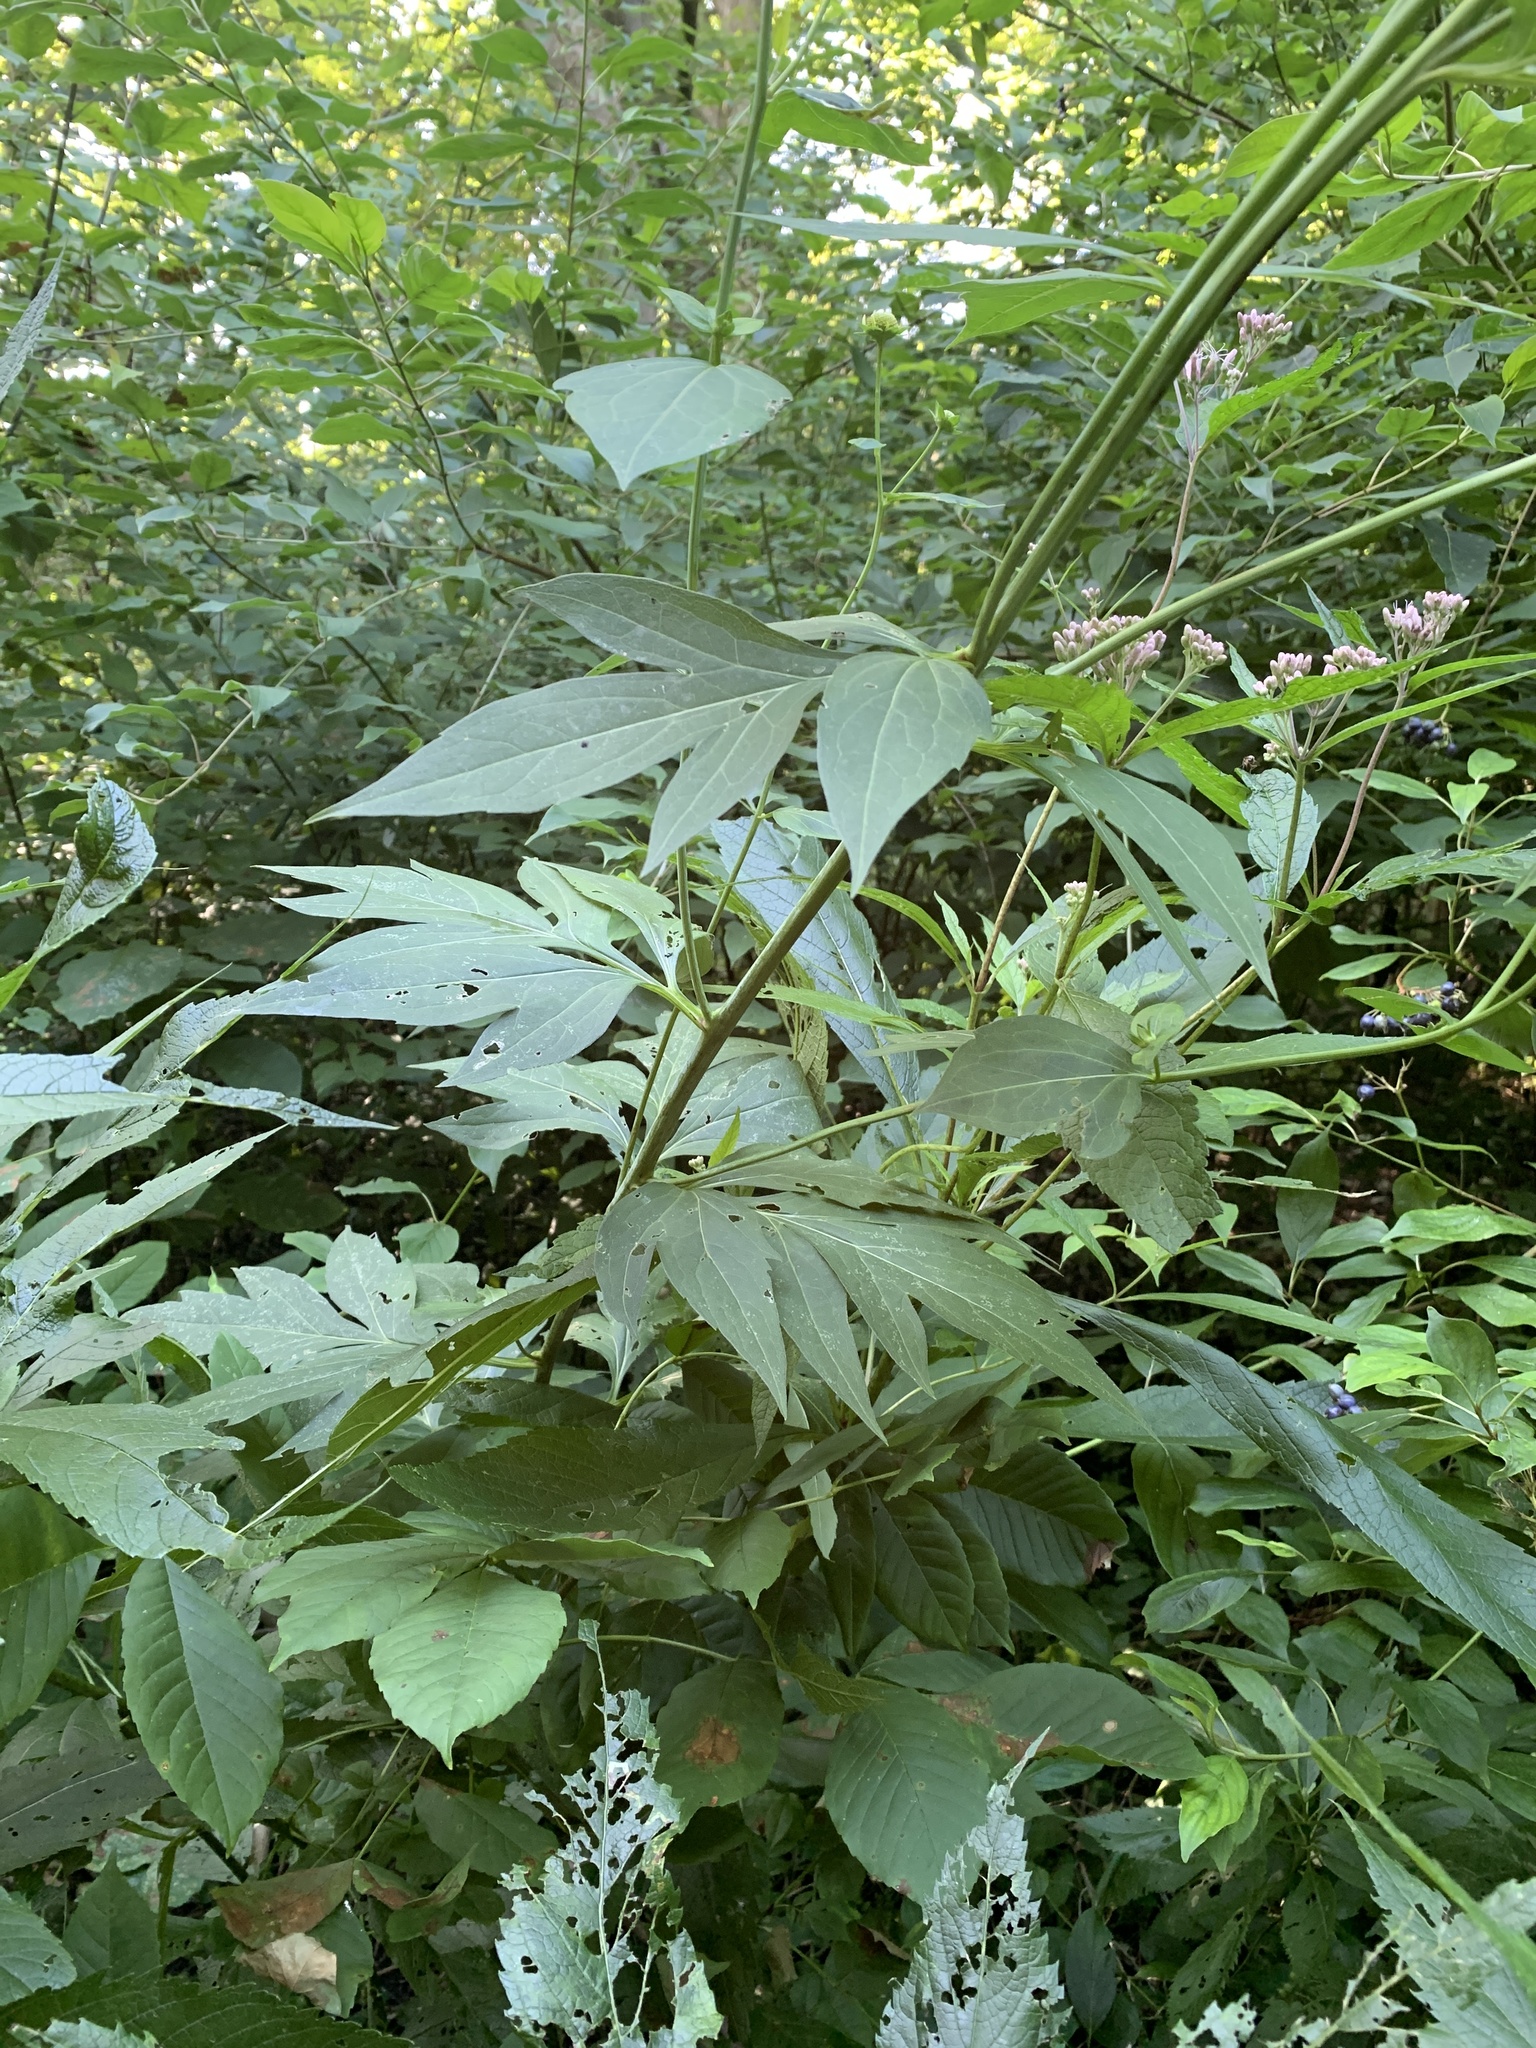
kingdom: Plantae
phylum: Tracheophyta
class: Magnoliopsida
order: Asterales
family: Asteraceae
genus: Rudbeckia
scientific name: Rudbeckia laciniata
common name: Coneflower
